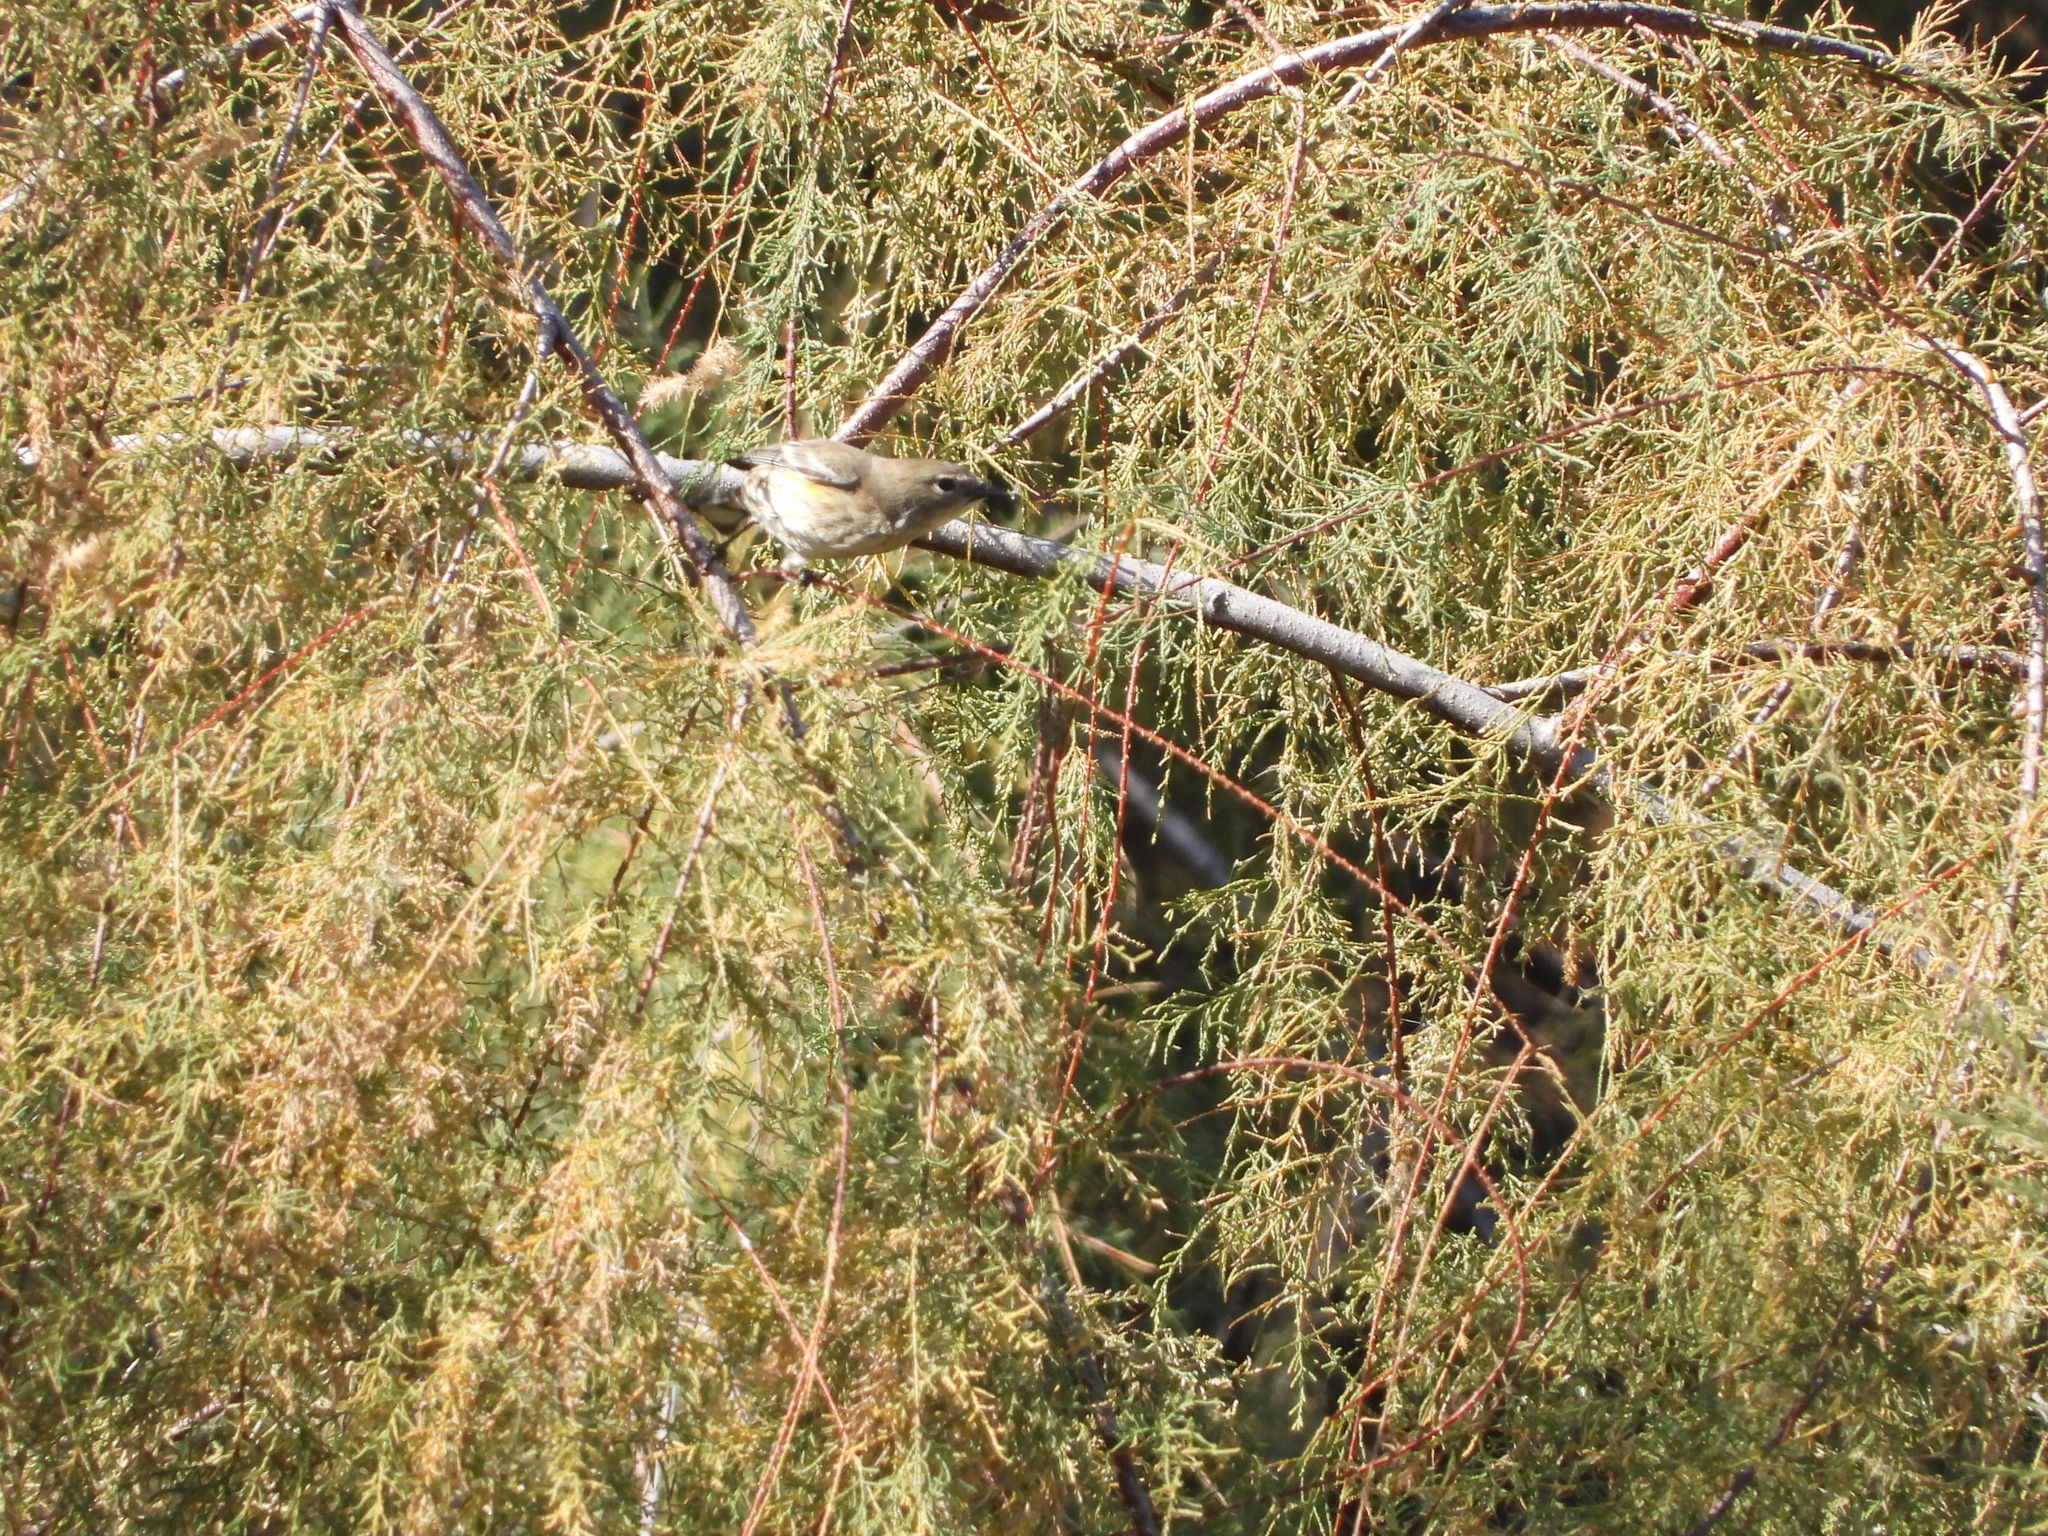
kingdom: Animalia
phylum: Chordata
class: Aves
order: Passeriformes
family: Parulidae
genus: Setophaga
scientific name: Setophaga coronata
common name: Myrtle warbler
